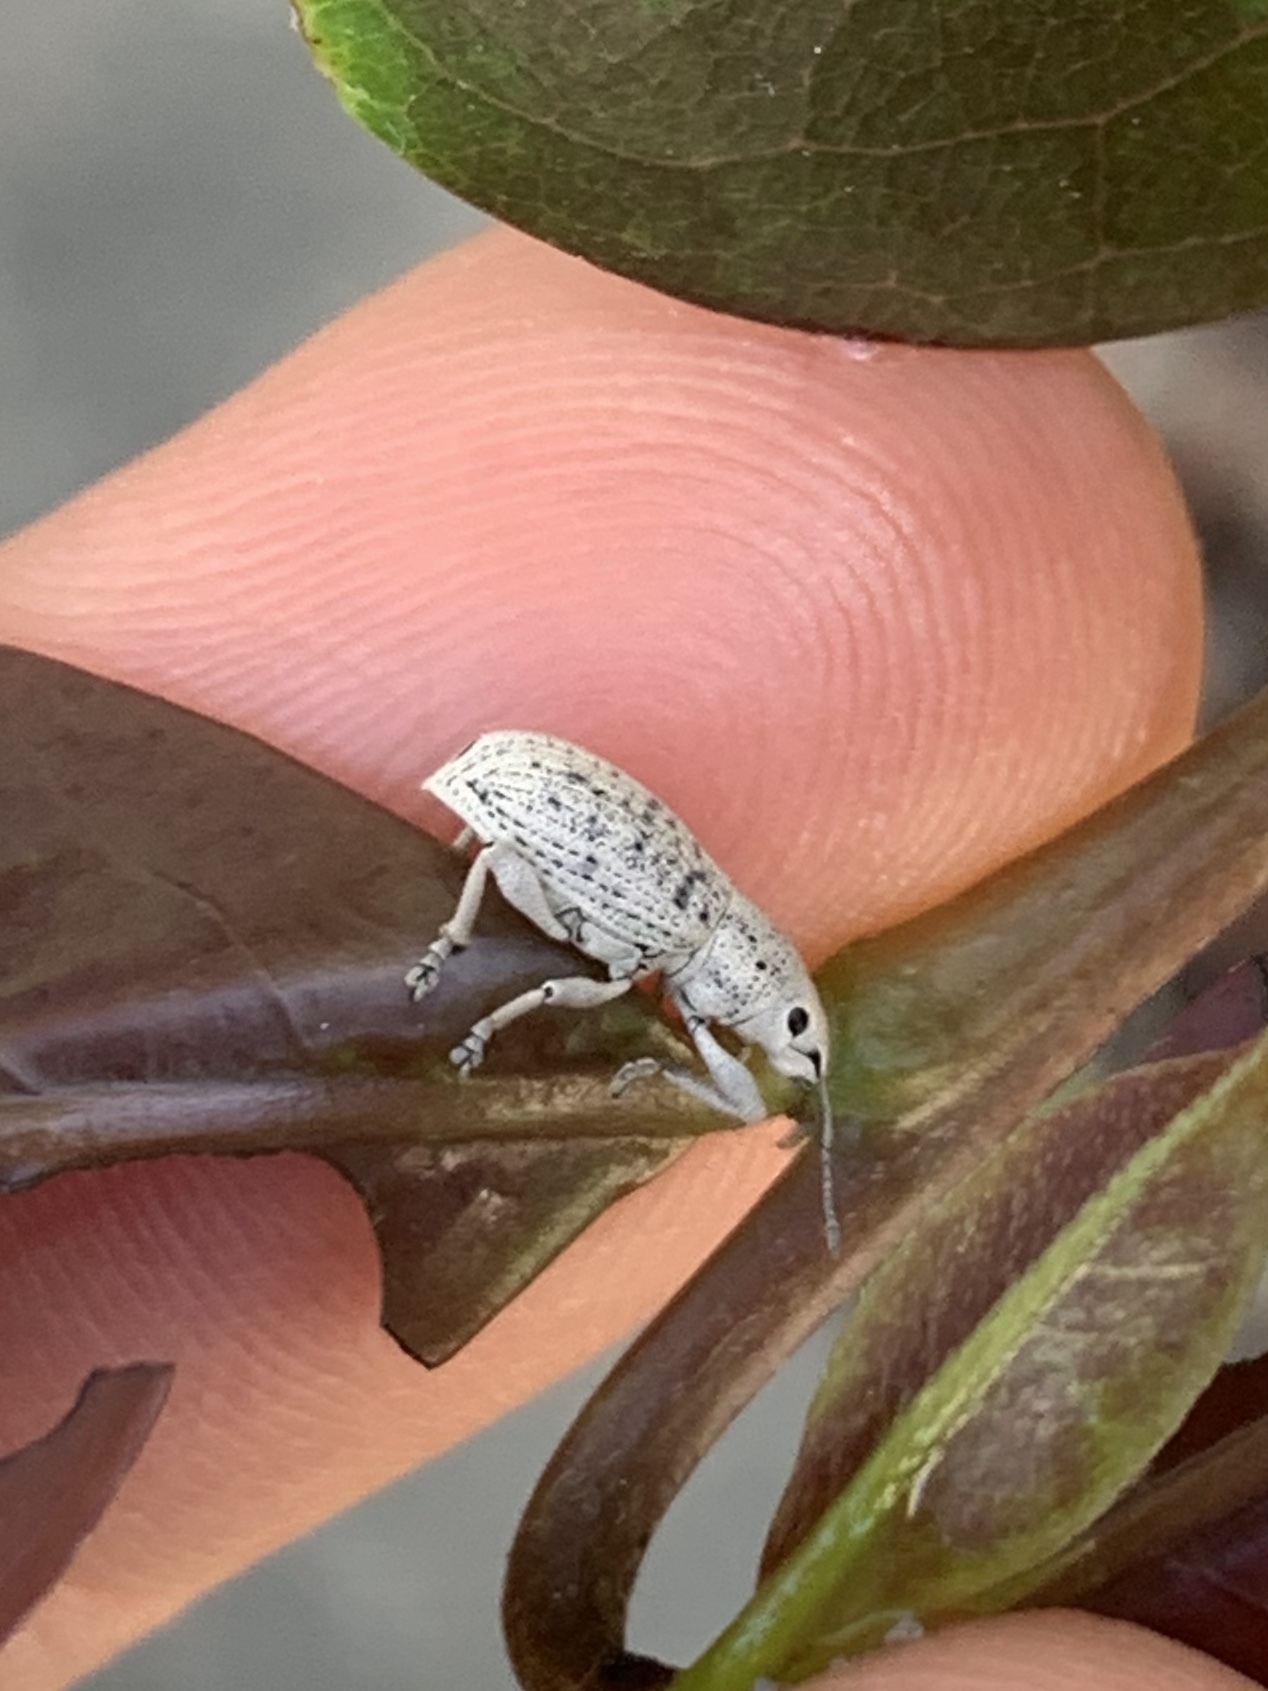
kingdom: Animalia
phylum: Arthropoda
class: Insecta
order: Coleoptera
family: Curculionidae
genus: Artipus
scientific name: Artipus floridanus
